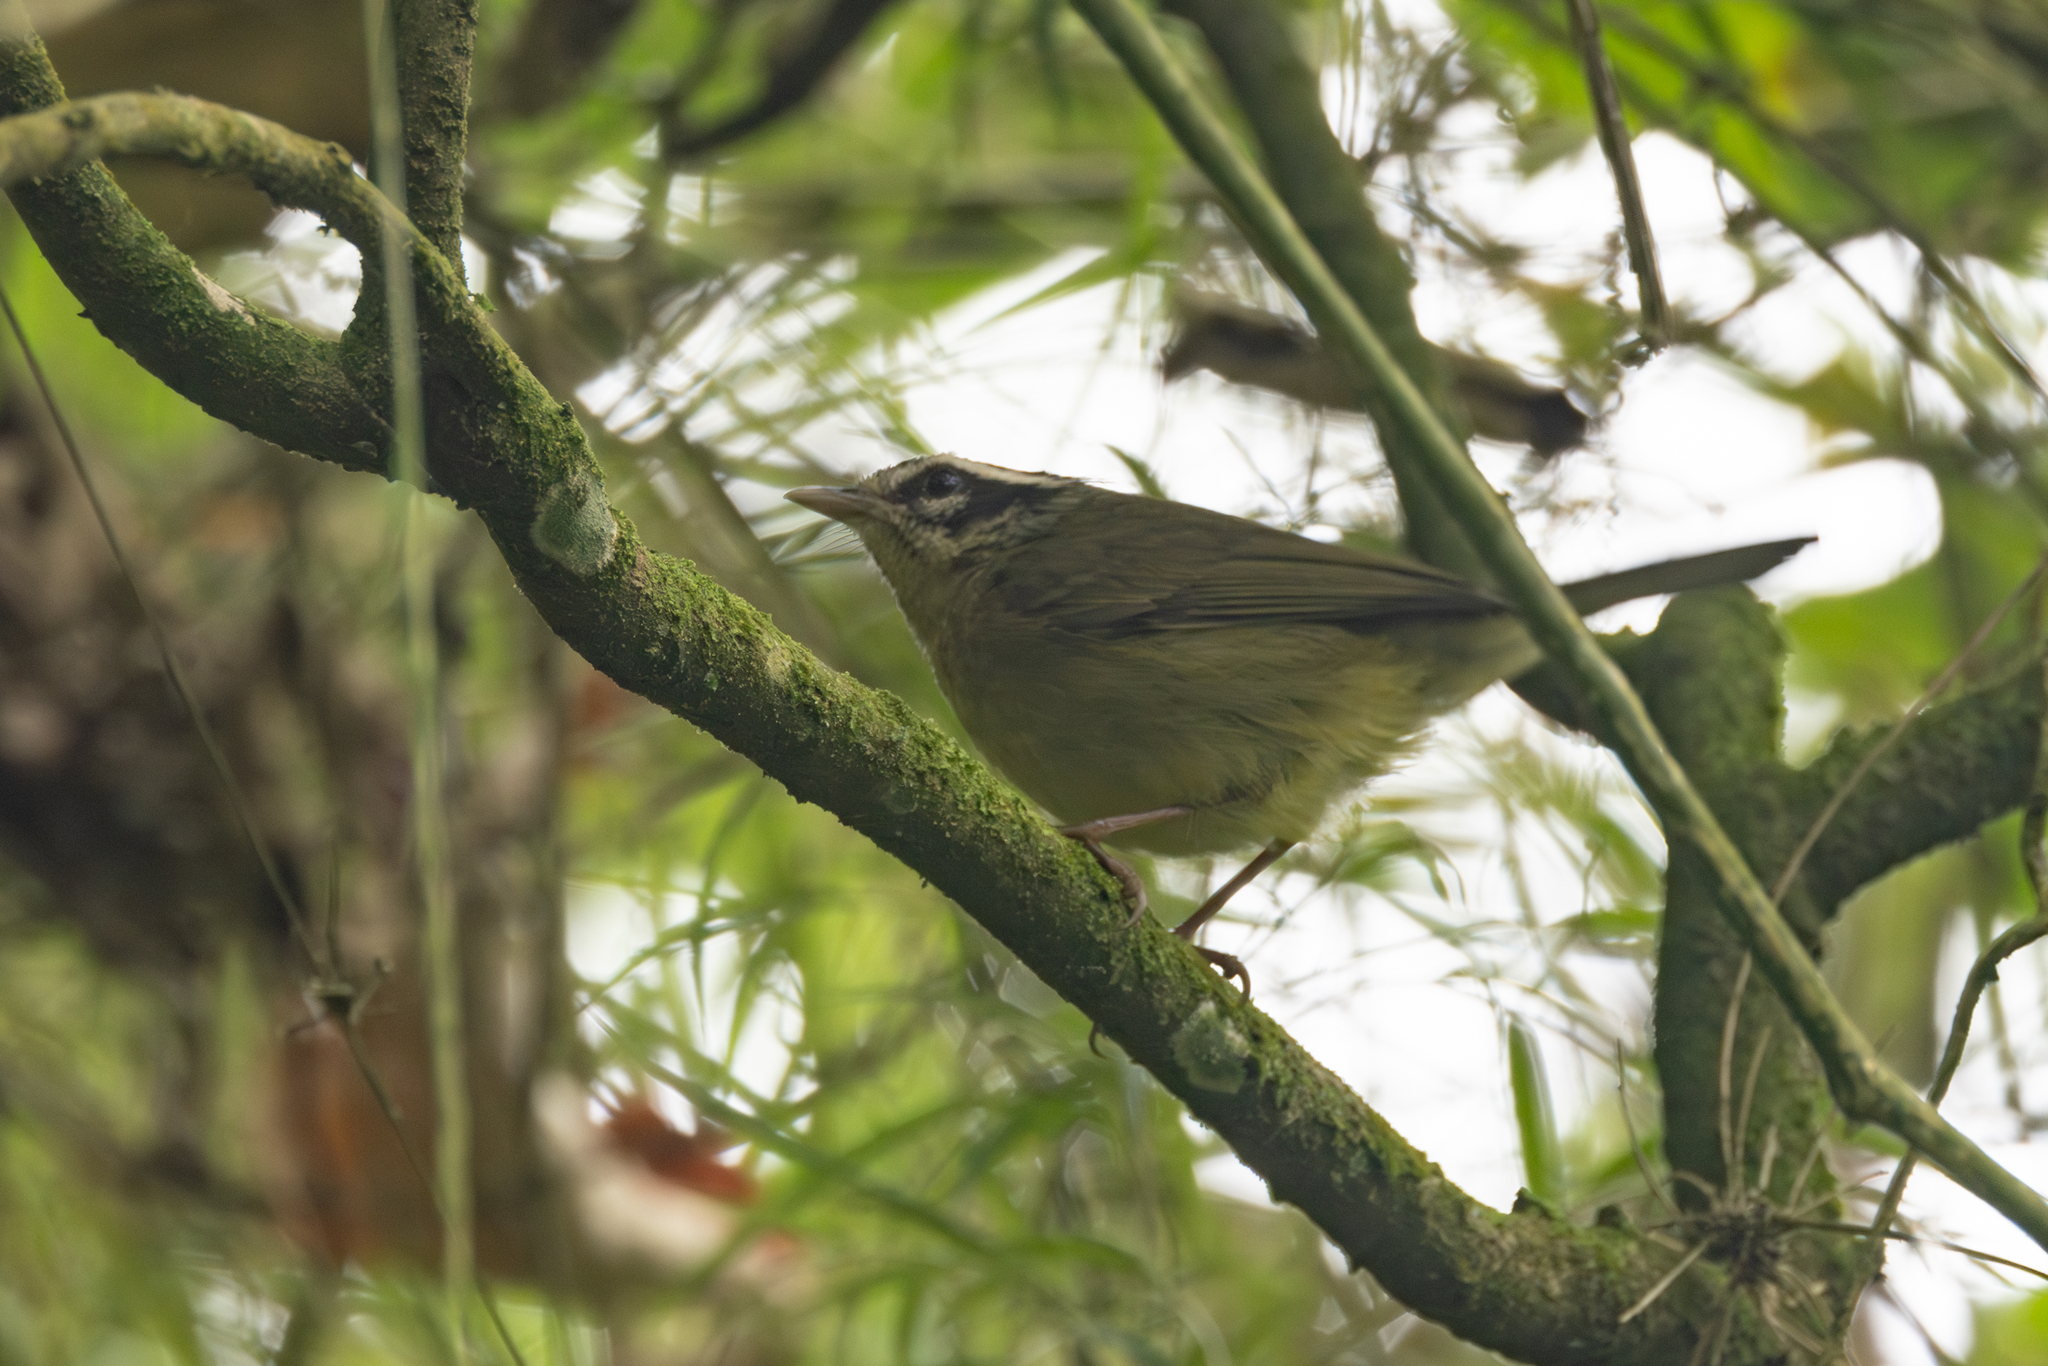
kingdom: Animalia
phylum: Chordata
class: Aves
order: Passeriformes
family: Parulidae
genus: Basileuterus
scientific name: Basileuterus tristriatus
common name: Three-striped warbler
